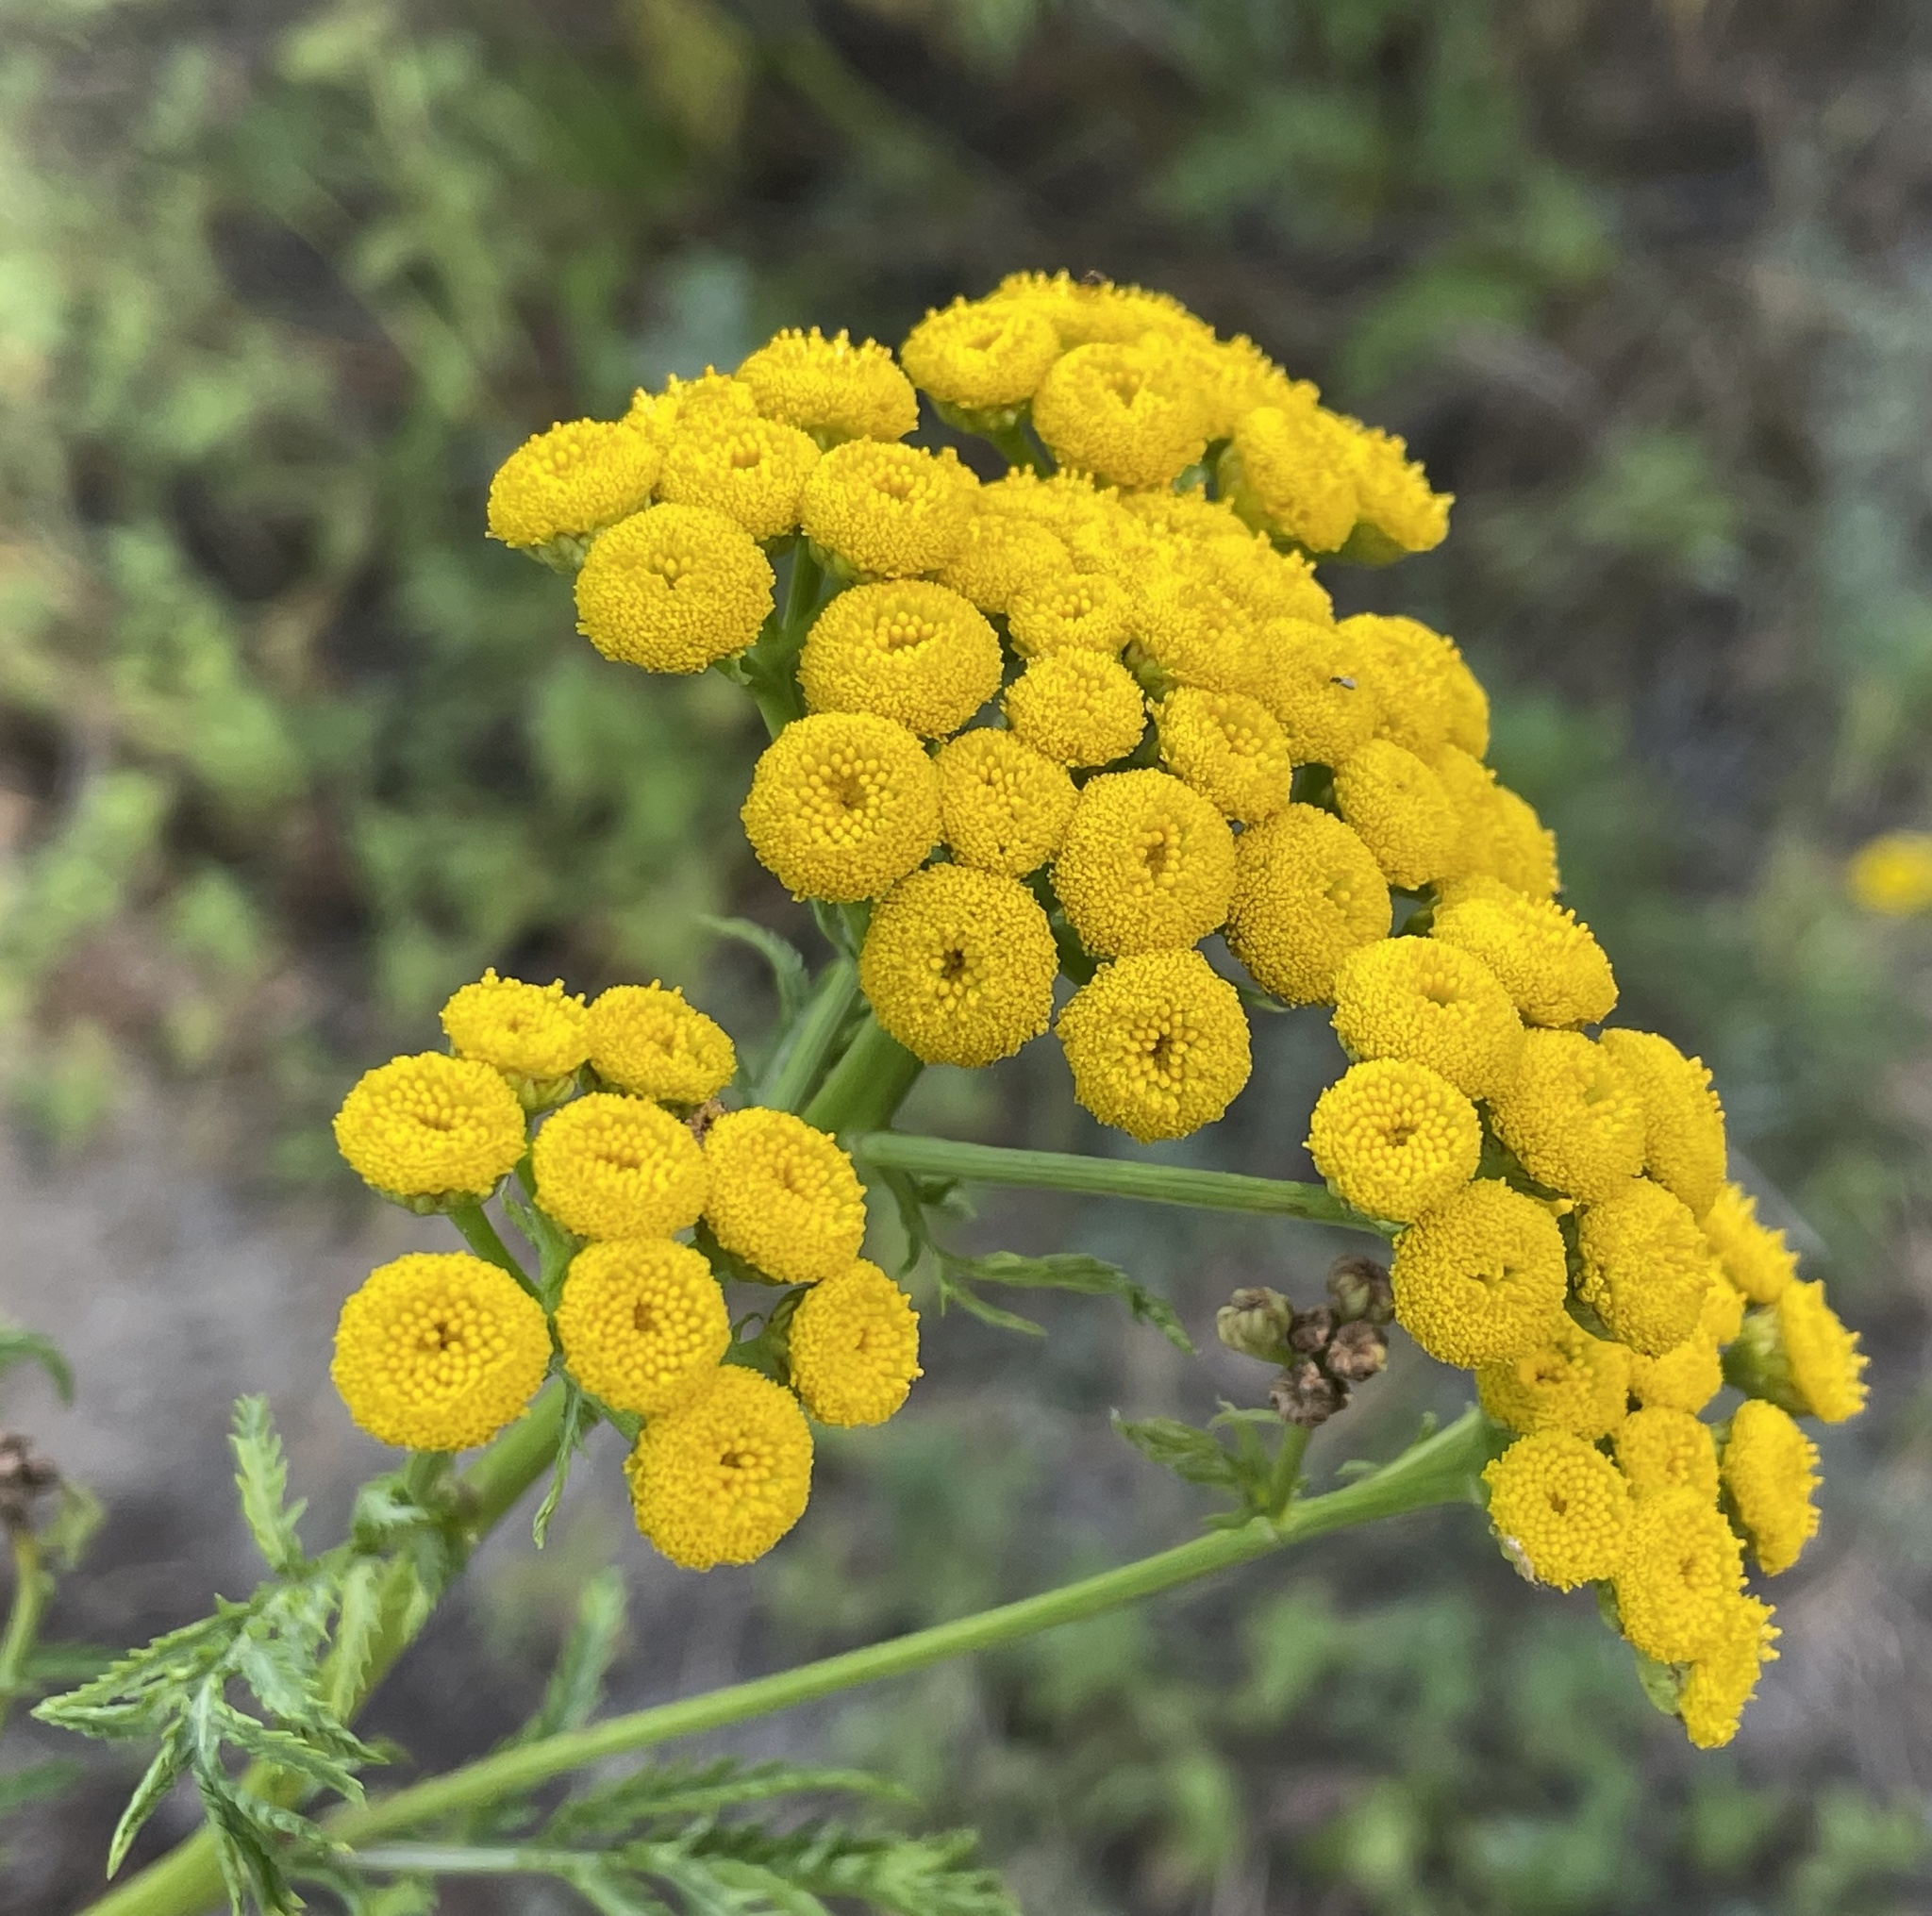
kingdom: Plantae
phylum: Tracheophyta
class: Magnoliopsida
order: Asterales
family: Asteraceae
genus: Tanacetum
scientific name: Tanacetum vulgare
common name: Common tansy
